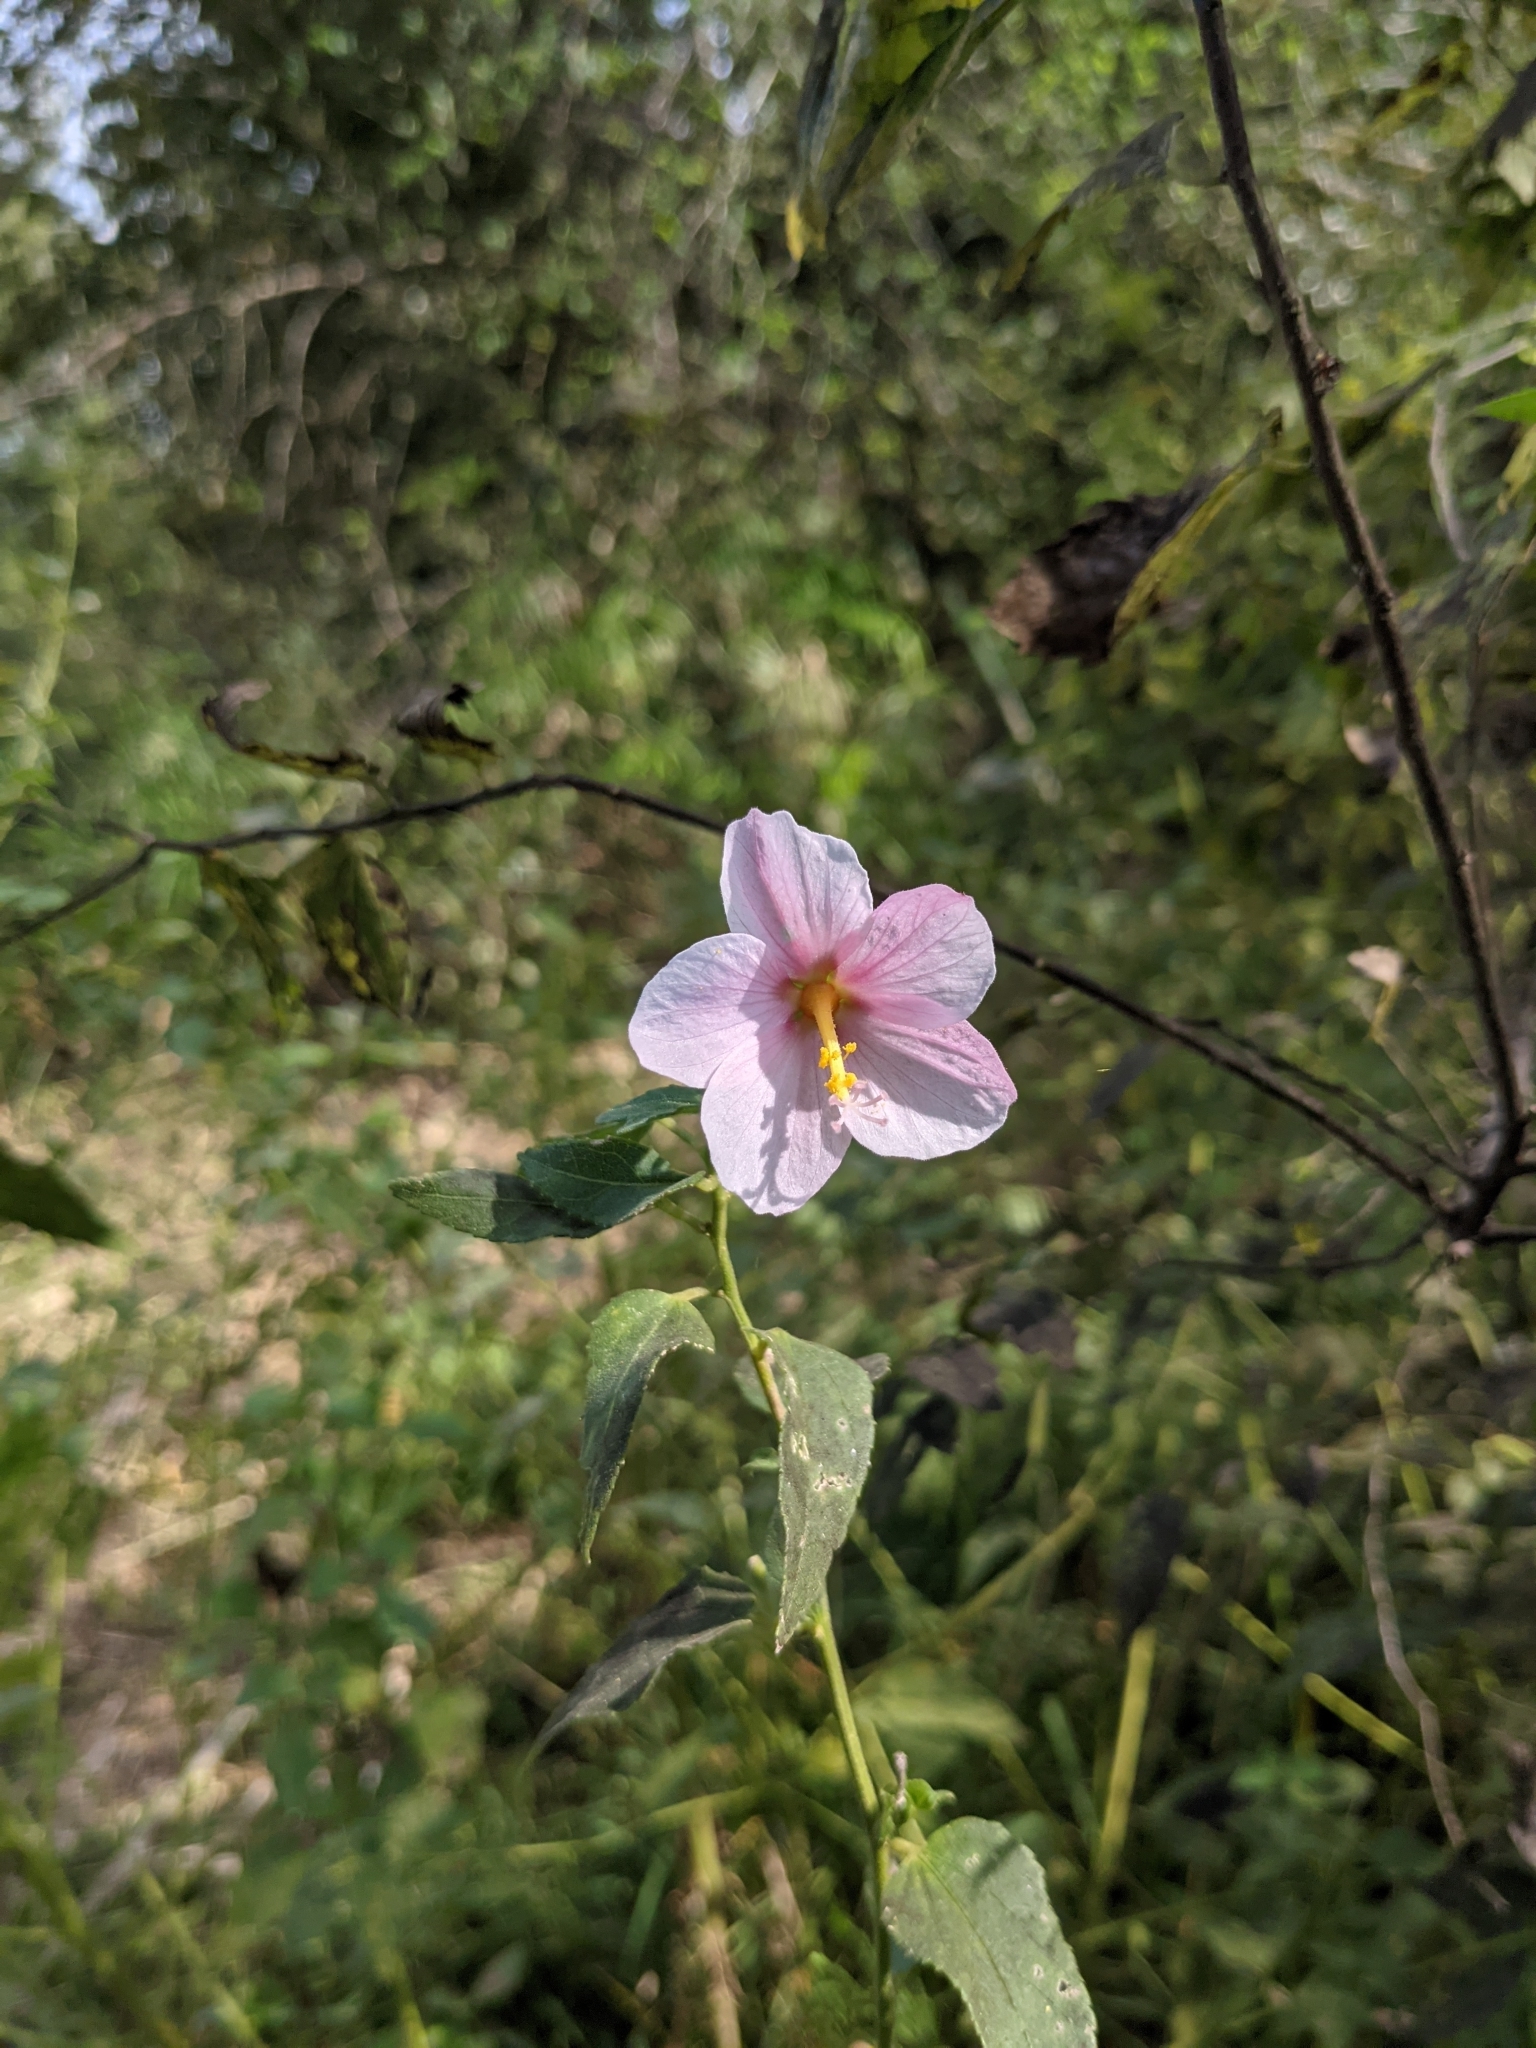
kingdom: Plantae
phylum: Tracheophyta
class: Magnoliopsida
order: Malvales
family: Malvaceae
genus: Kosteletzkya
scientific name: Kosteletzkya pentacarpos
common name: Virginia saltmarsh mallow
